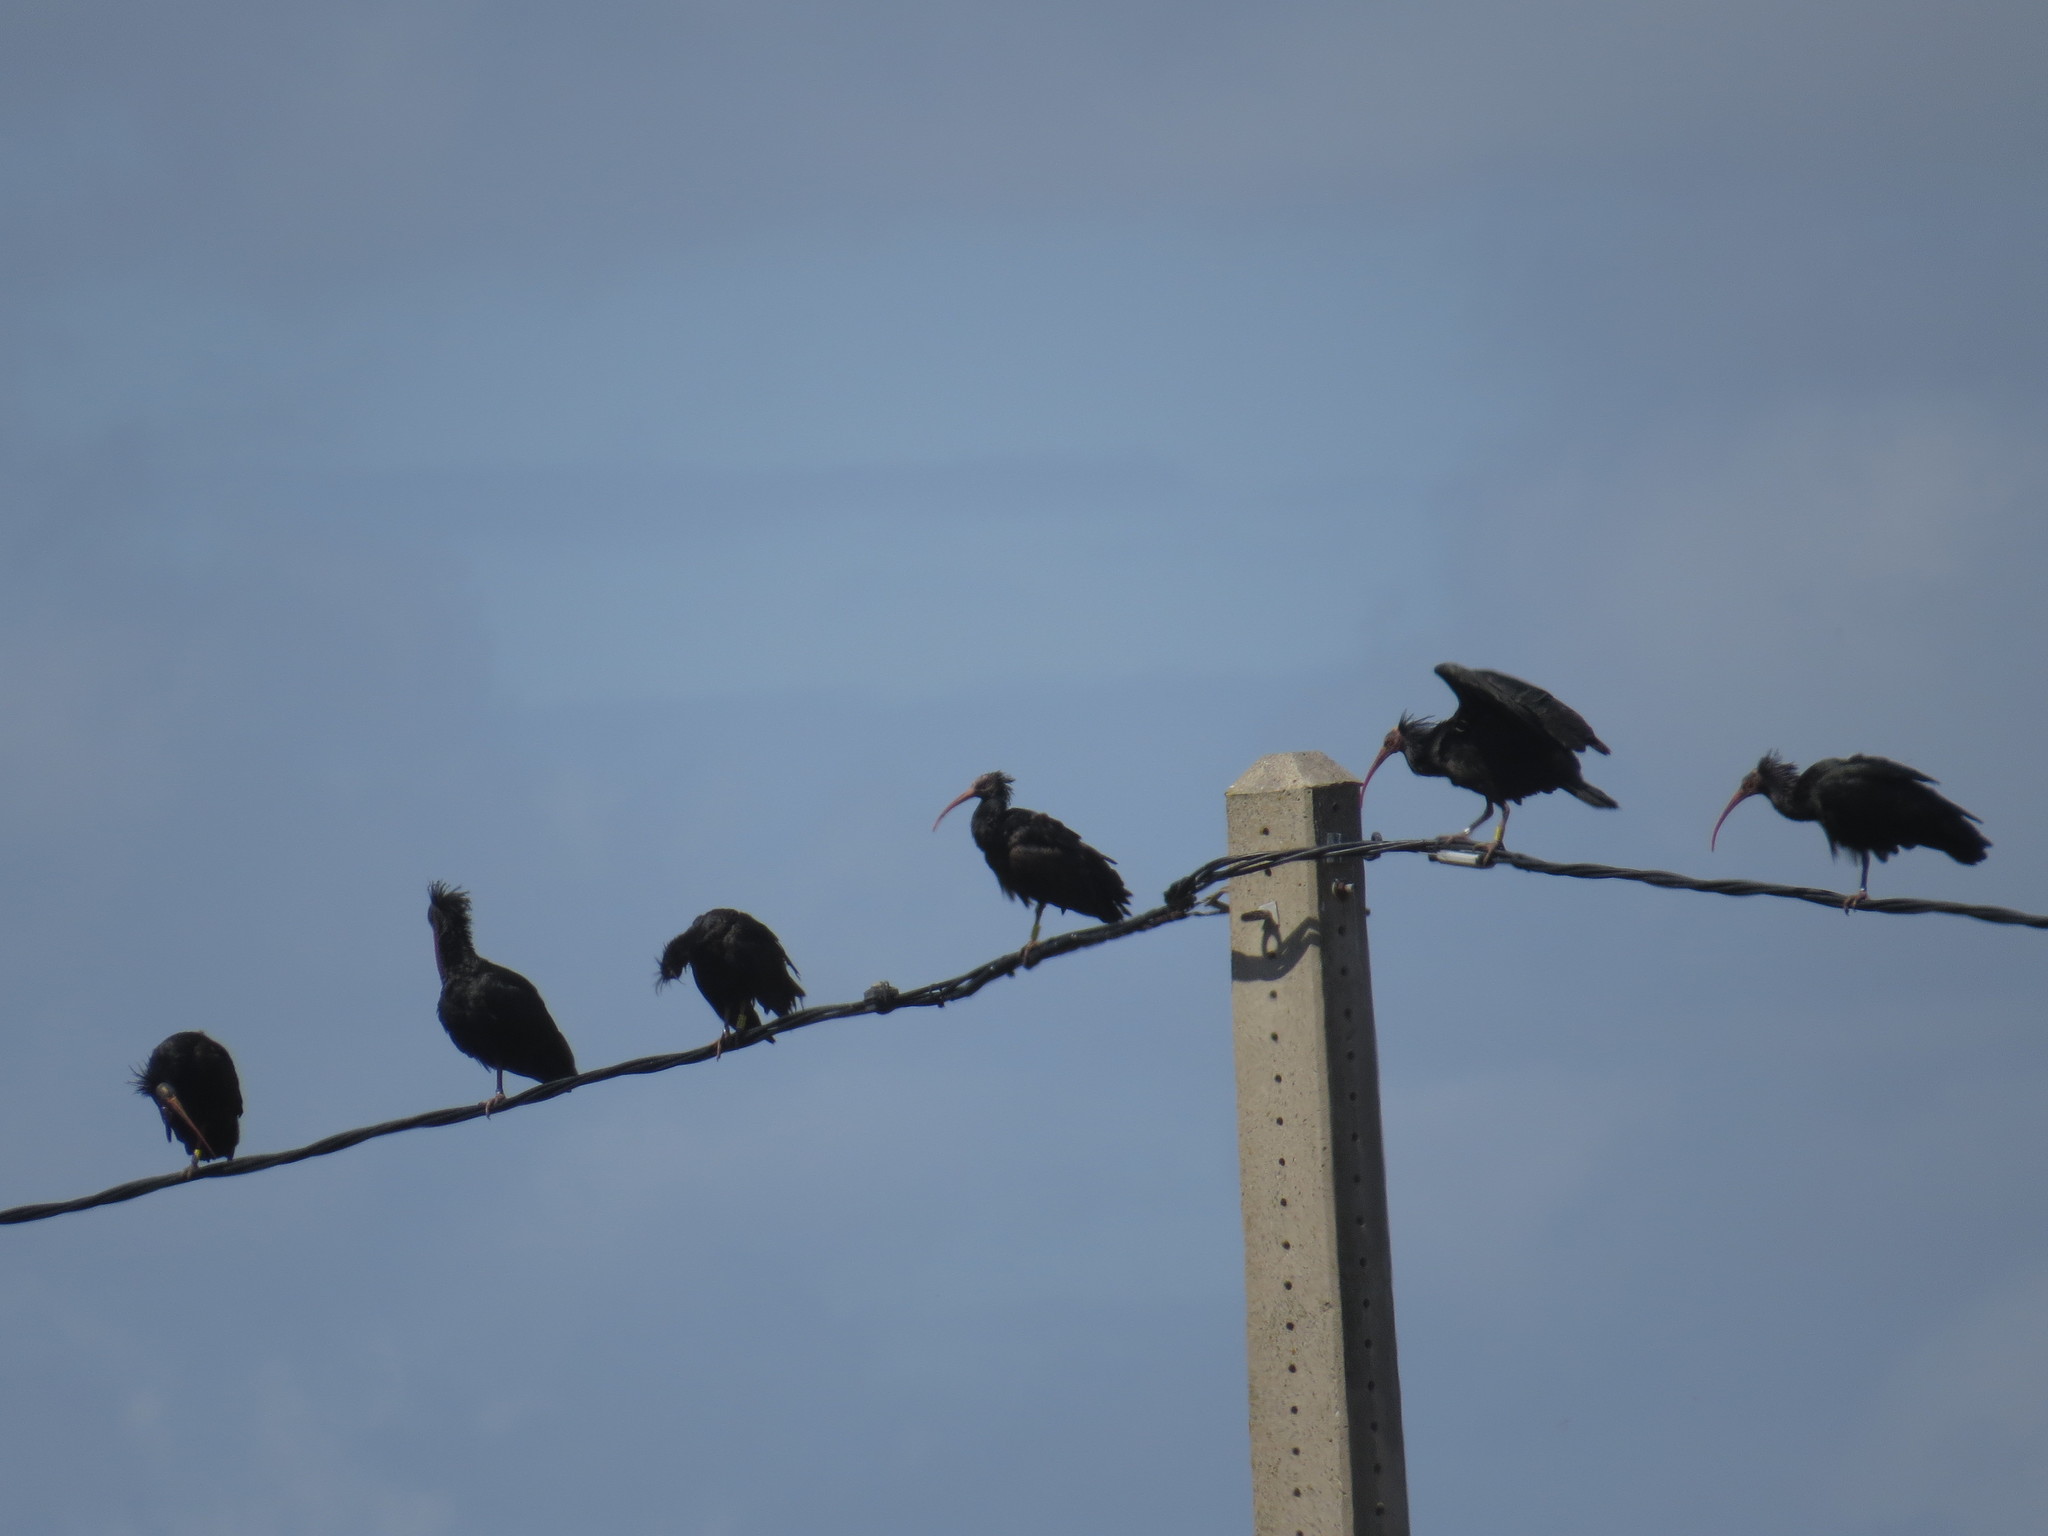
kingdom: Animalia
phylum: Chordata
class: Aves
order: Pelecaniformes
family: Threskiornithidae
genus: Geronticus
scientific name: Geronticus eremita
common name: Northern bald ibis
